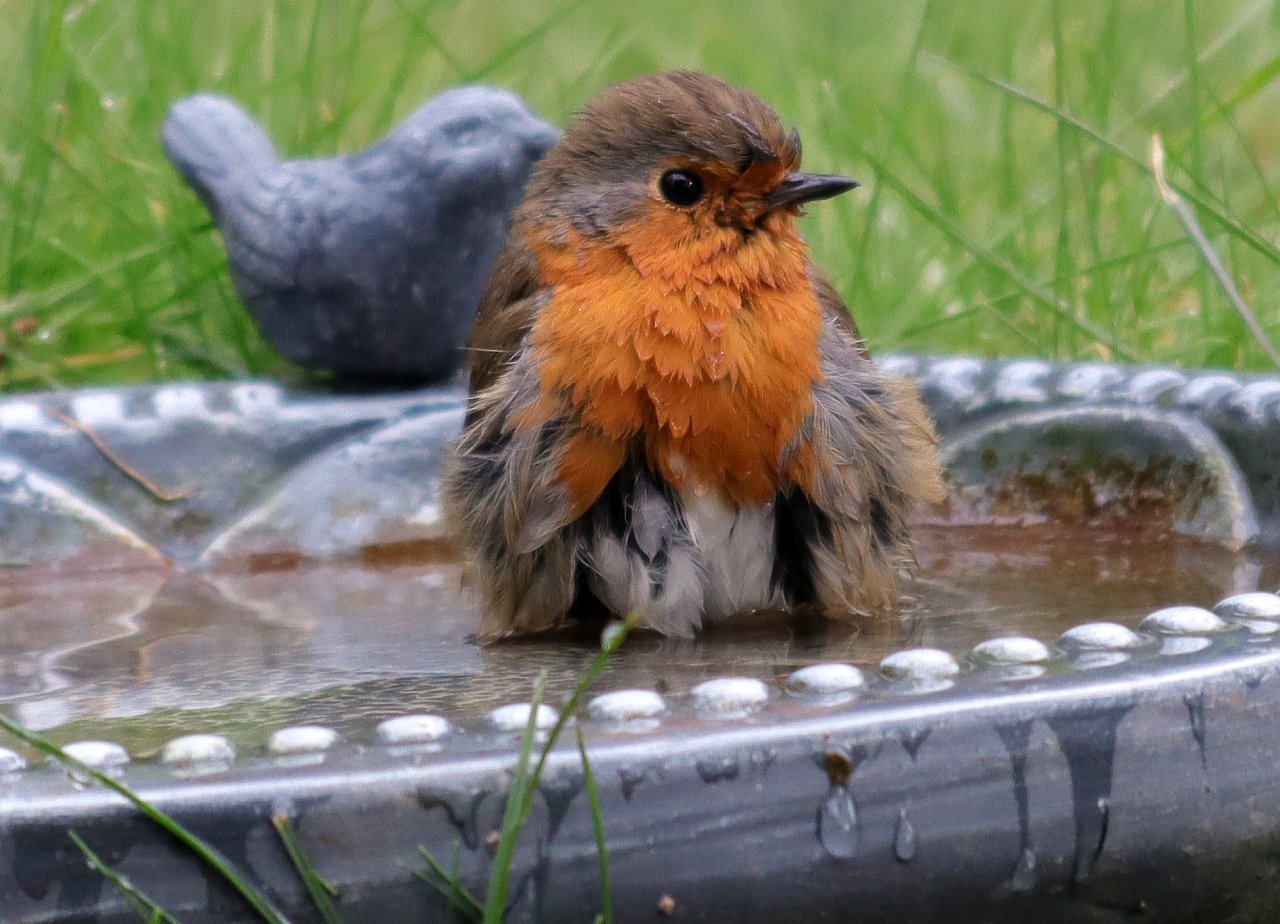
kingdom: Animalia
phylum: Chordata
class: Aves
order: Passeriformes
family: Muscicapidae
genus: Erithacus
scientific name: Erithacus rubecula
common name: European robin
